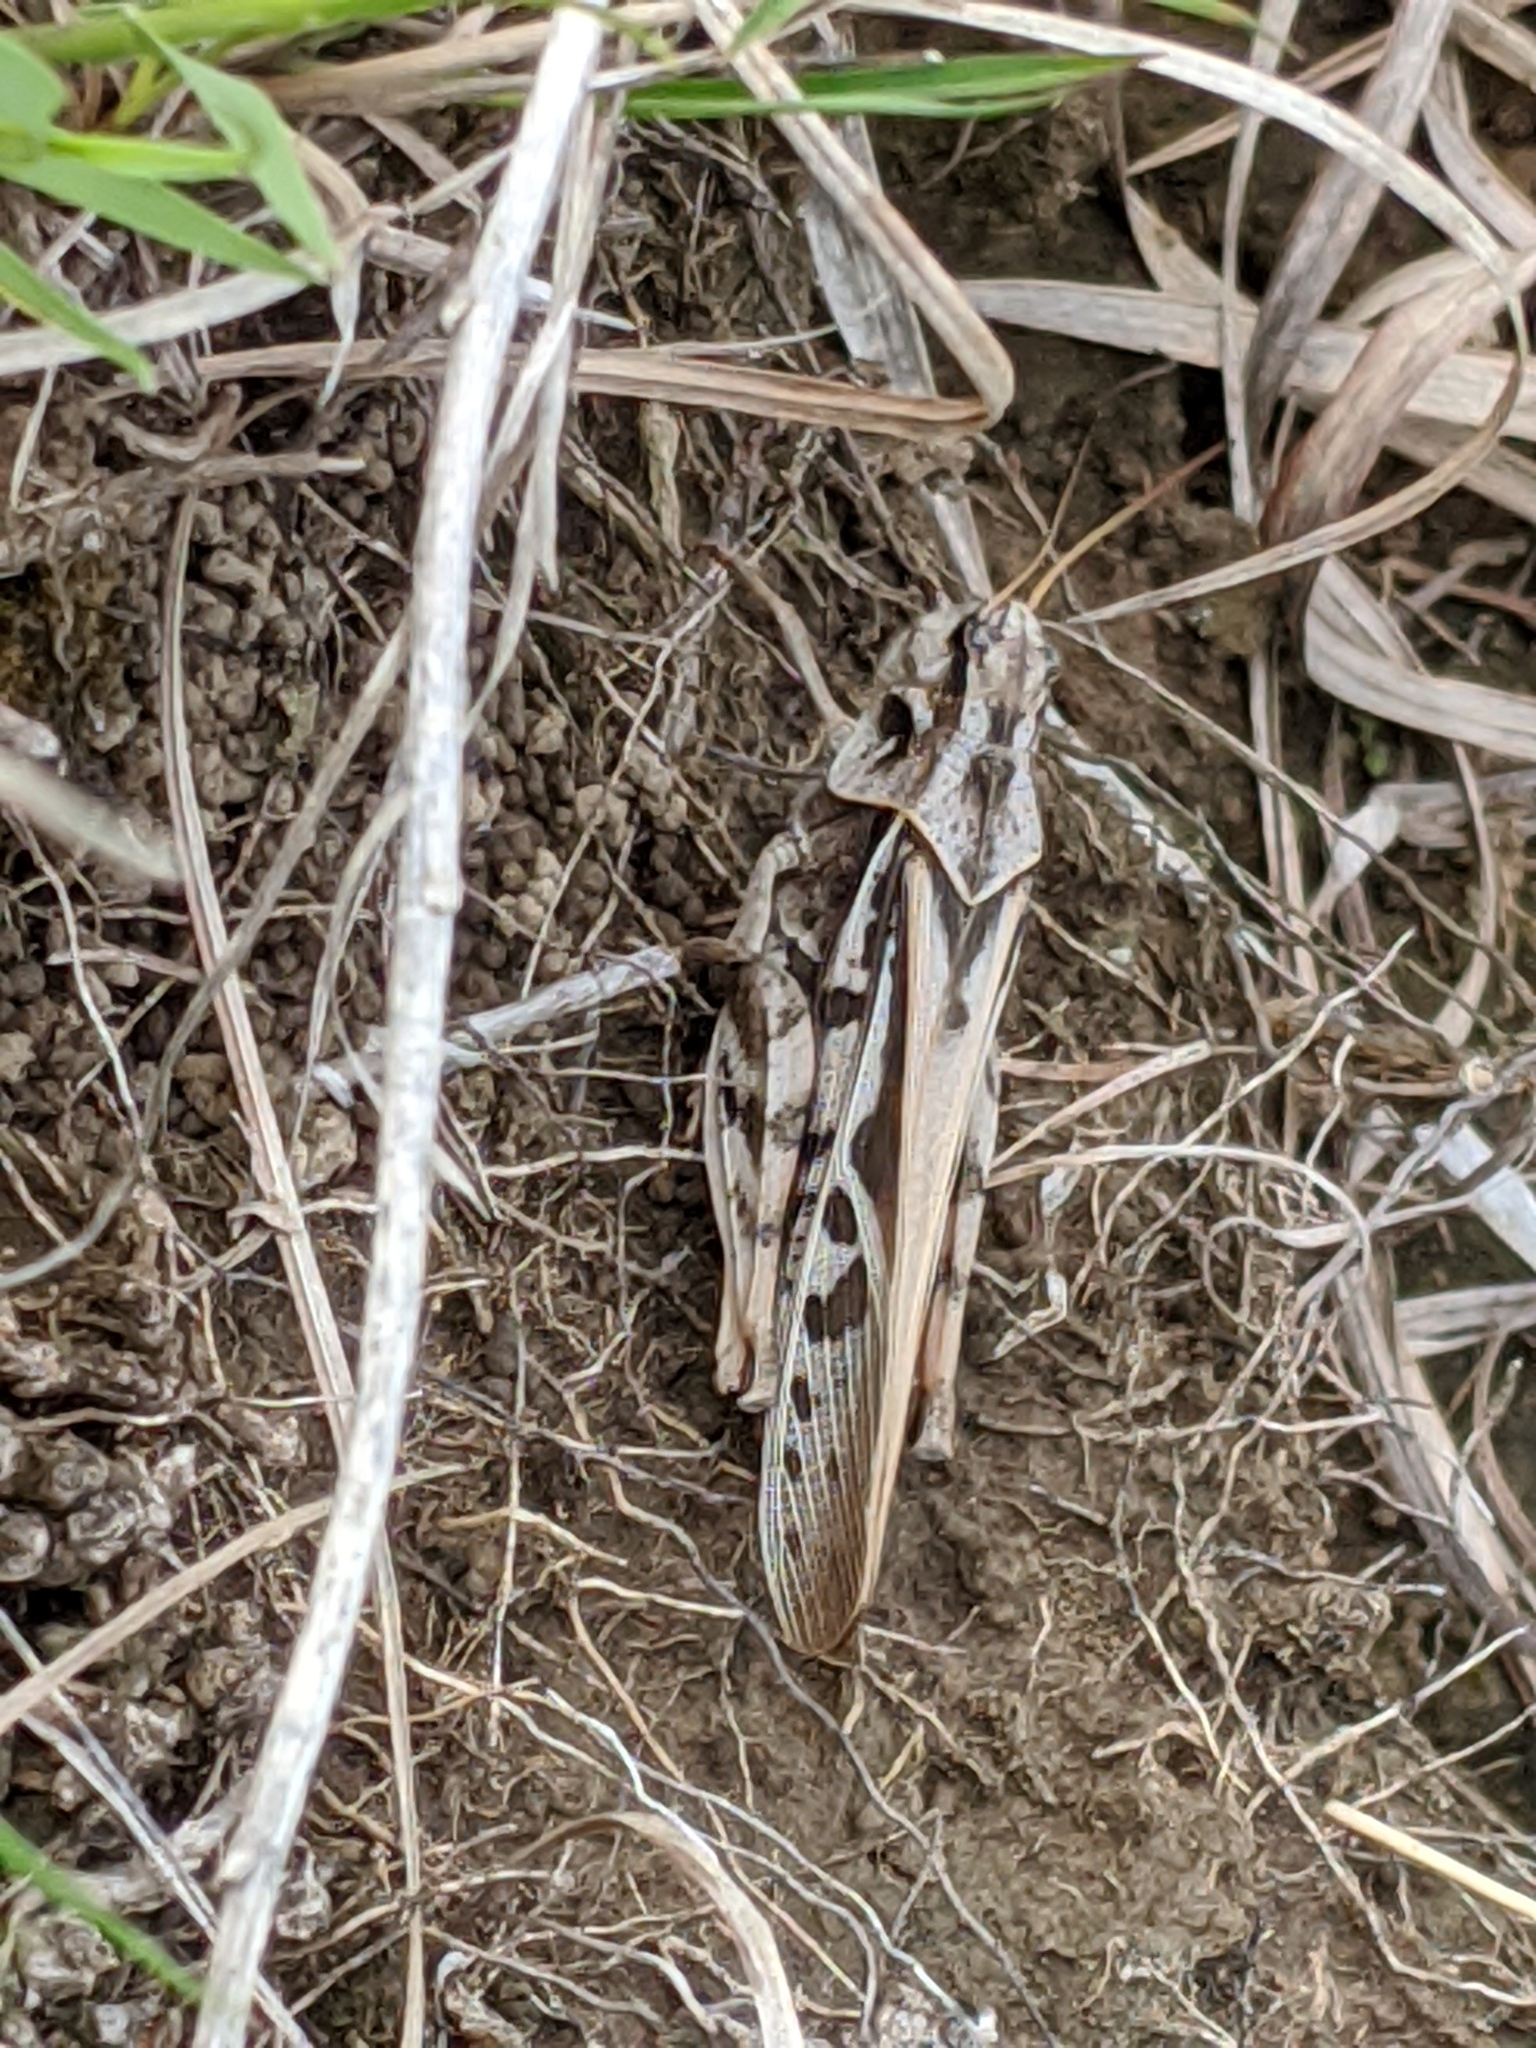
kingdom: Animalia
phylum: Arthropoda
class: Insecta
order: Orthoptera
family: Acrididae
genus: Pardalophora
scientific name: Pardalophora apiculata
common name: Coral-winged locust
